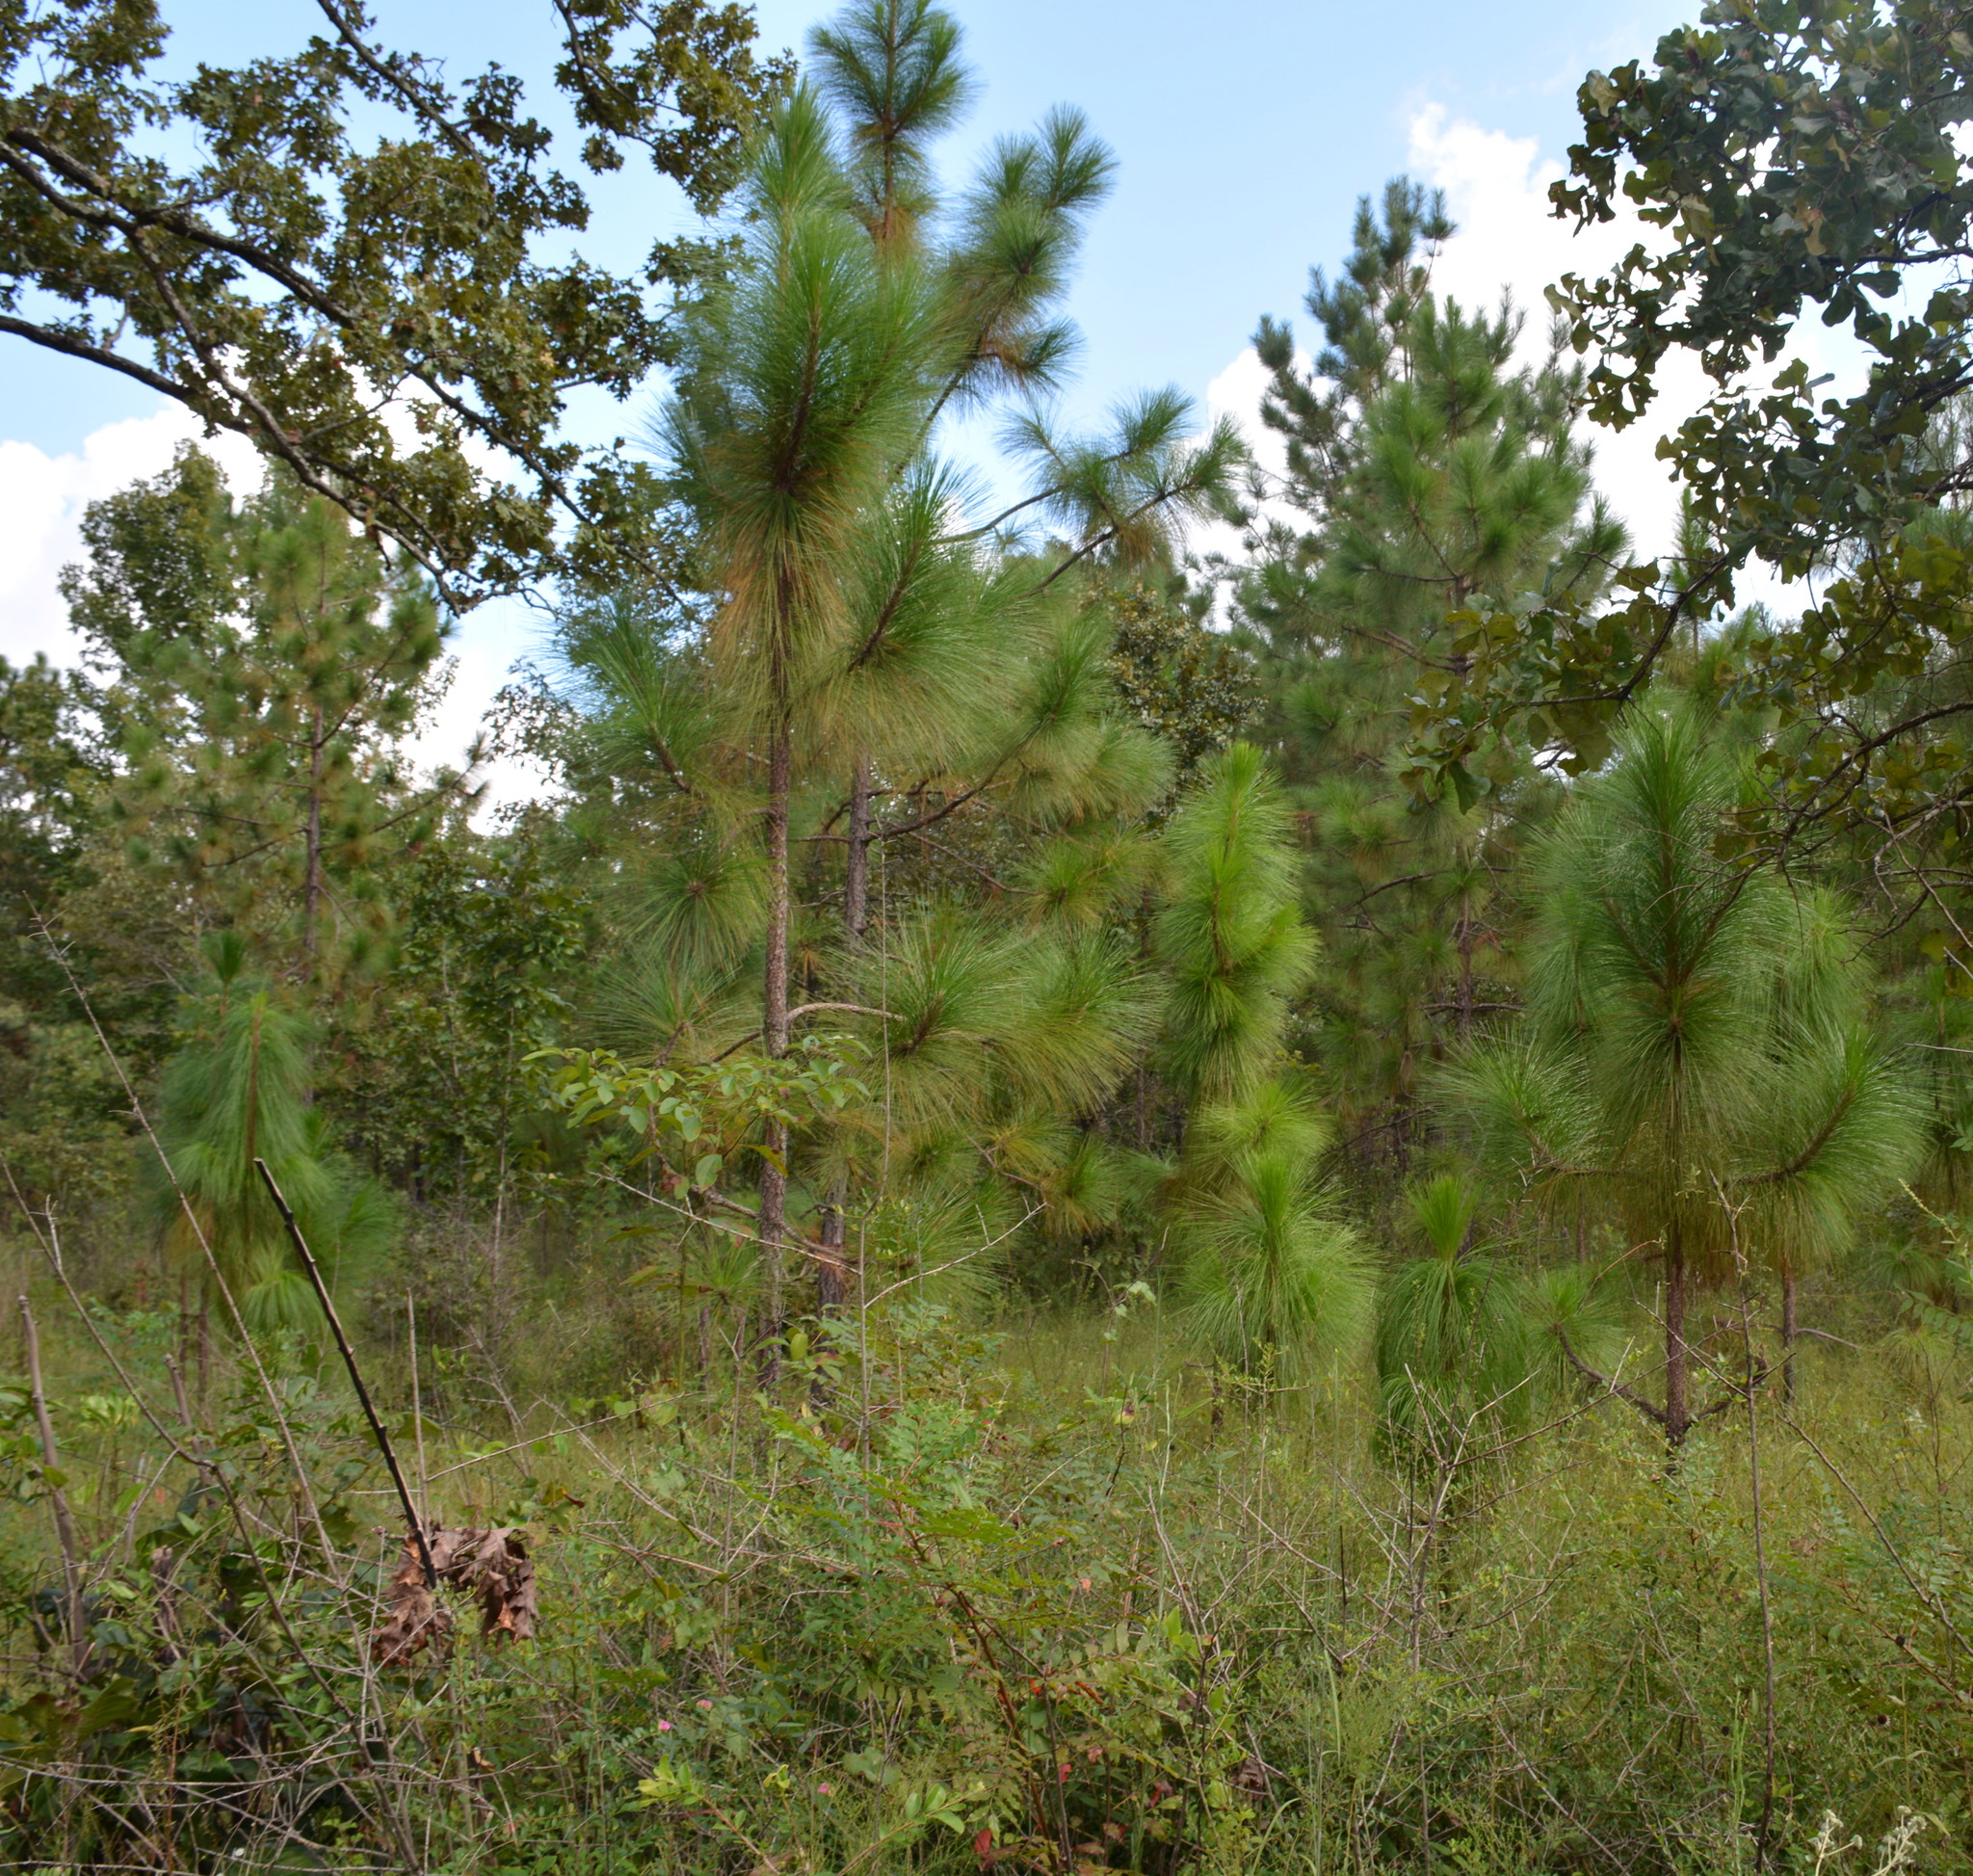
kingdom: Plantae
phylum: Tracheophyta
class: Pinopsida
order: Pinales
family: Pinaceae
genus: Pinus
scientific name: Pinus palustris
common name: Longleaf pine
